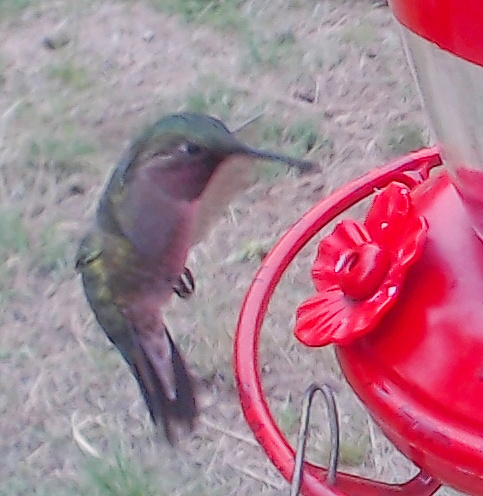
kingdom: Animalia
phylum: Chordata
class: Aves
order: Apodiformes
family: Trochilidae
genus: Selasphorus
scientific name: Selasphorus platycercus
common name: Broad-tailed hummingbird
